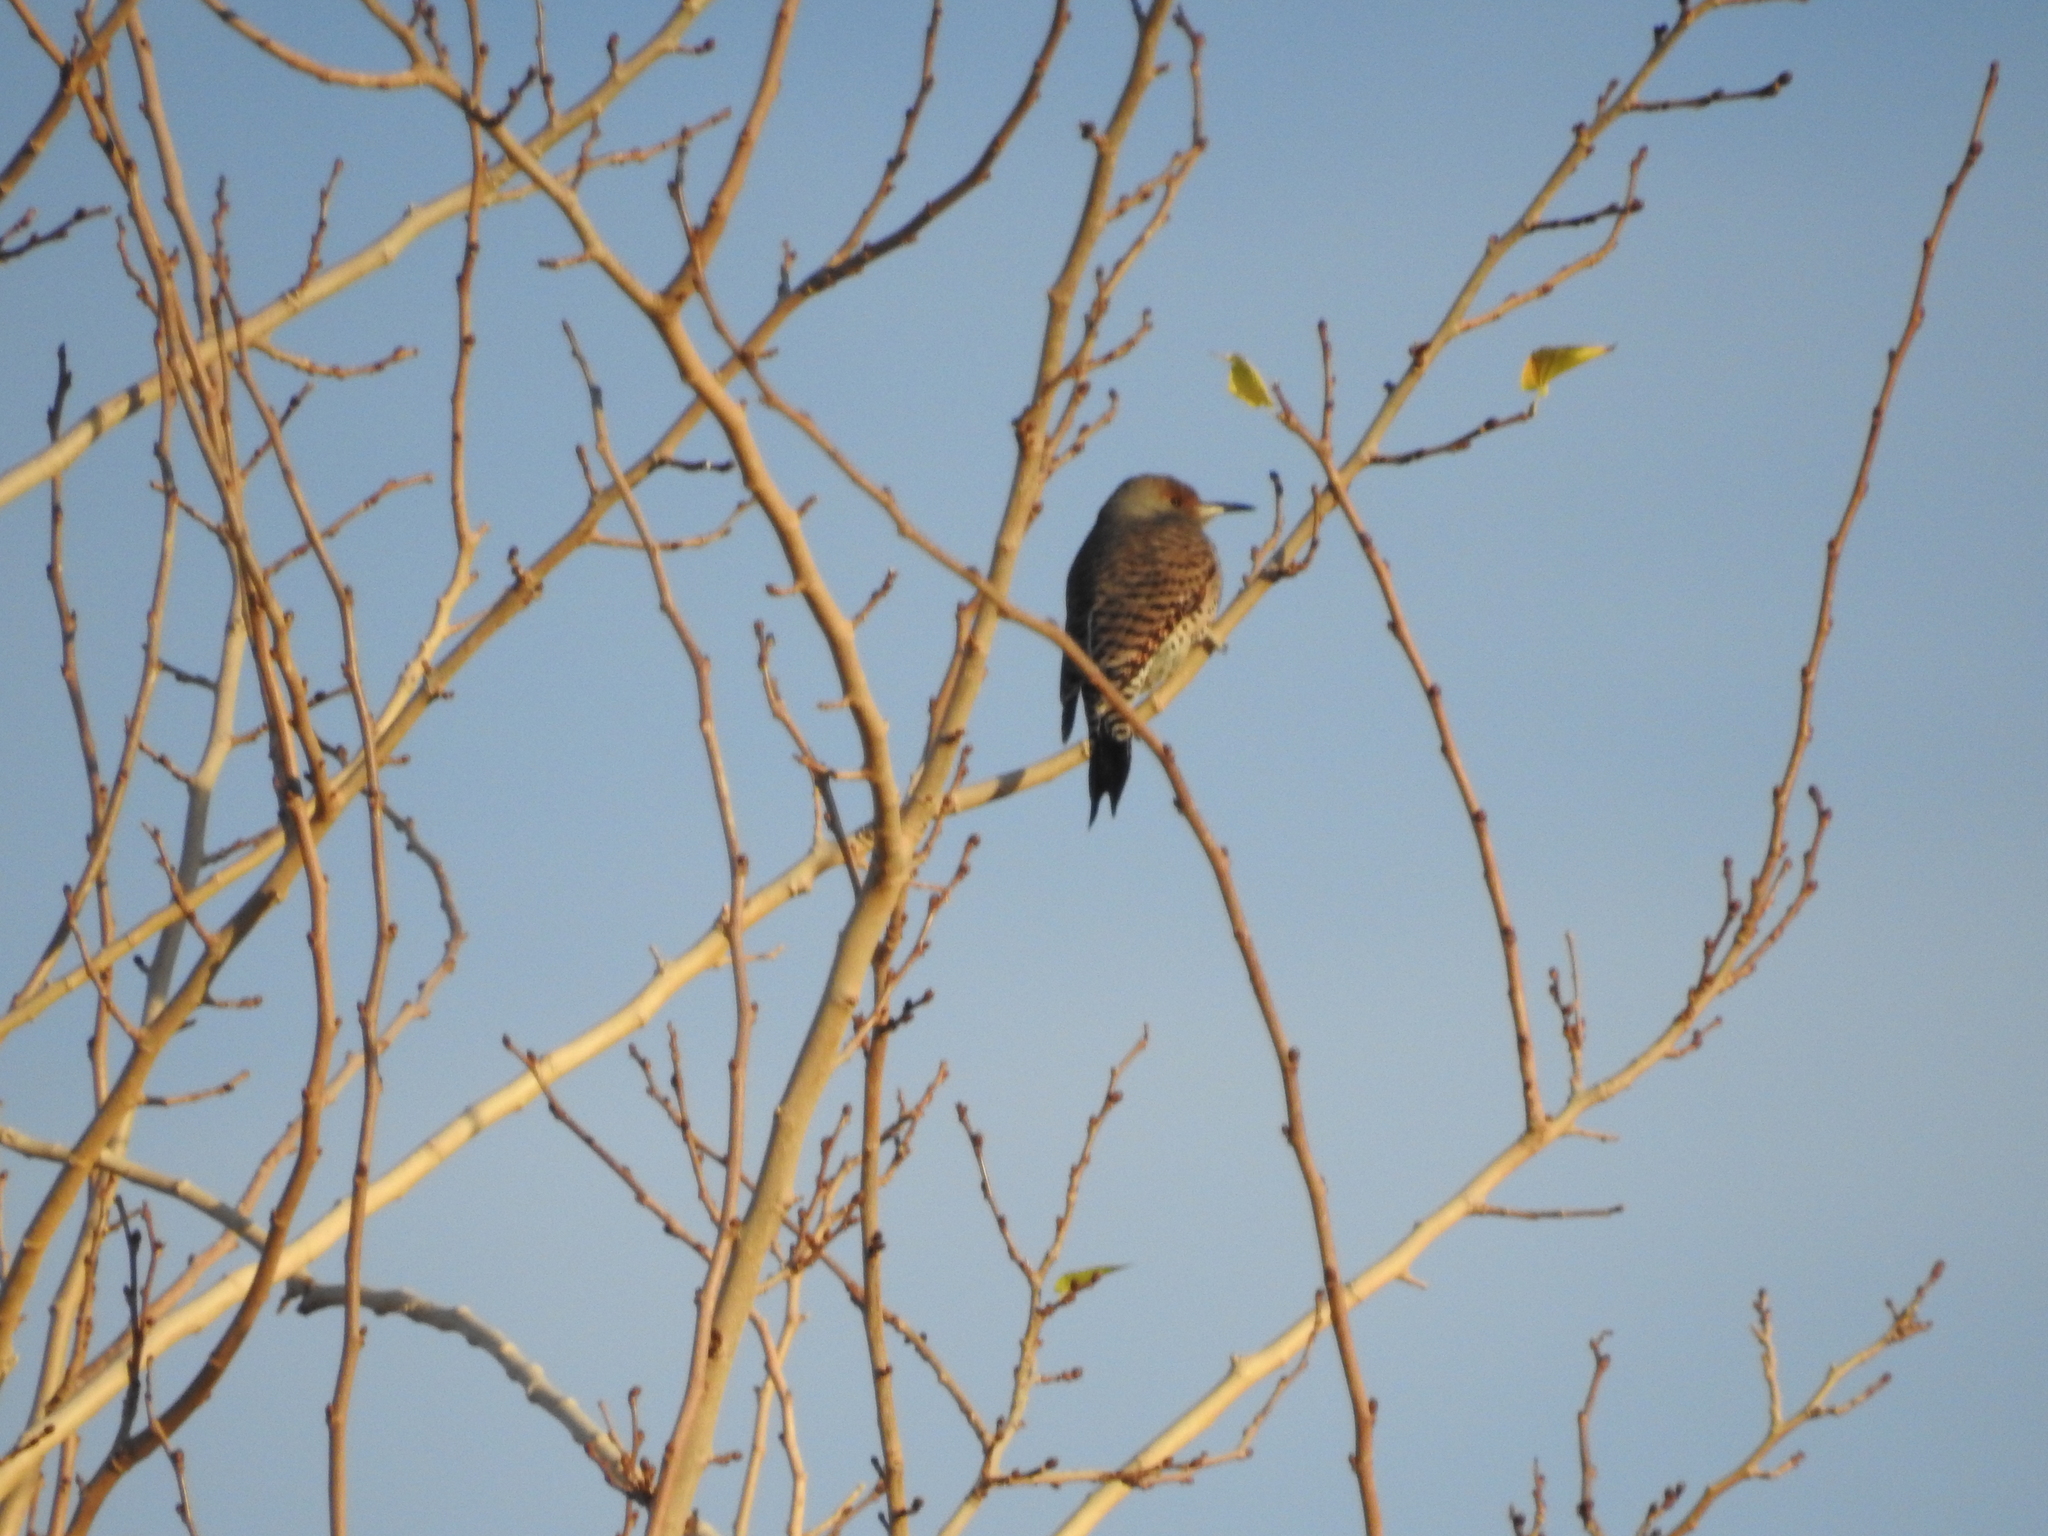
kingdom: Animalia
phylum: Chordata
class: Aves
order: Piciformes
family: Picidae
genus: Colaptes
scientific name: Colaptes auratus
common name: Northern flicker
